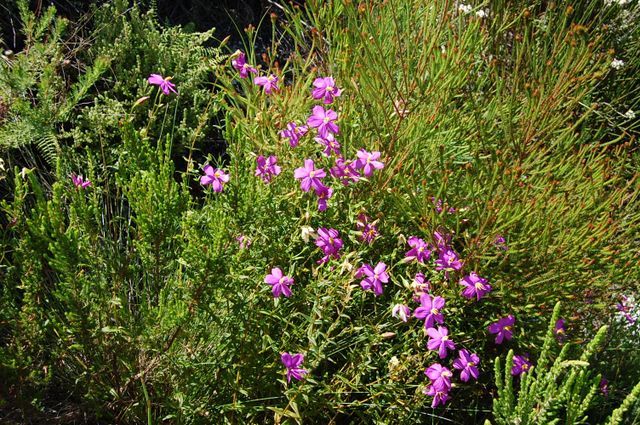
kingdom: Plantae
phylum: Tracheophyta
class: Magnoliopsida
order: Gentianales
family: Gentianaceae
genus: Chironia
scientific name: Chironia melampyrifolia
